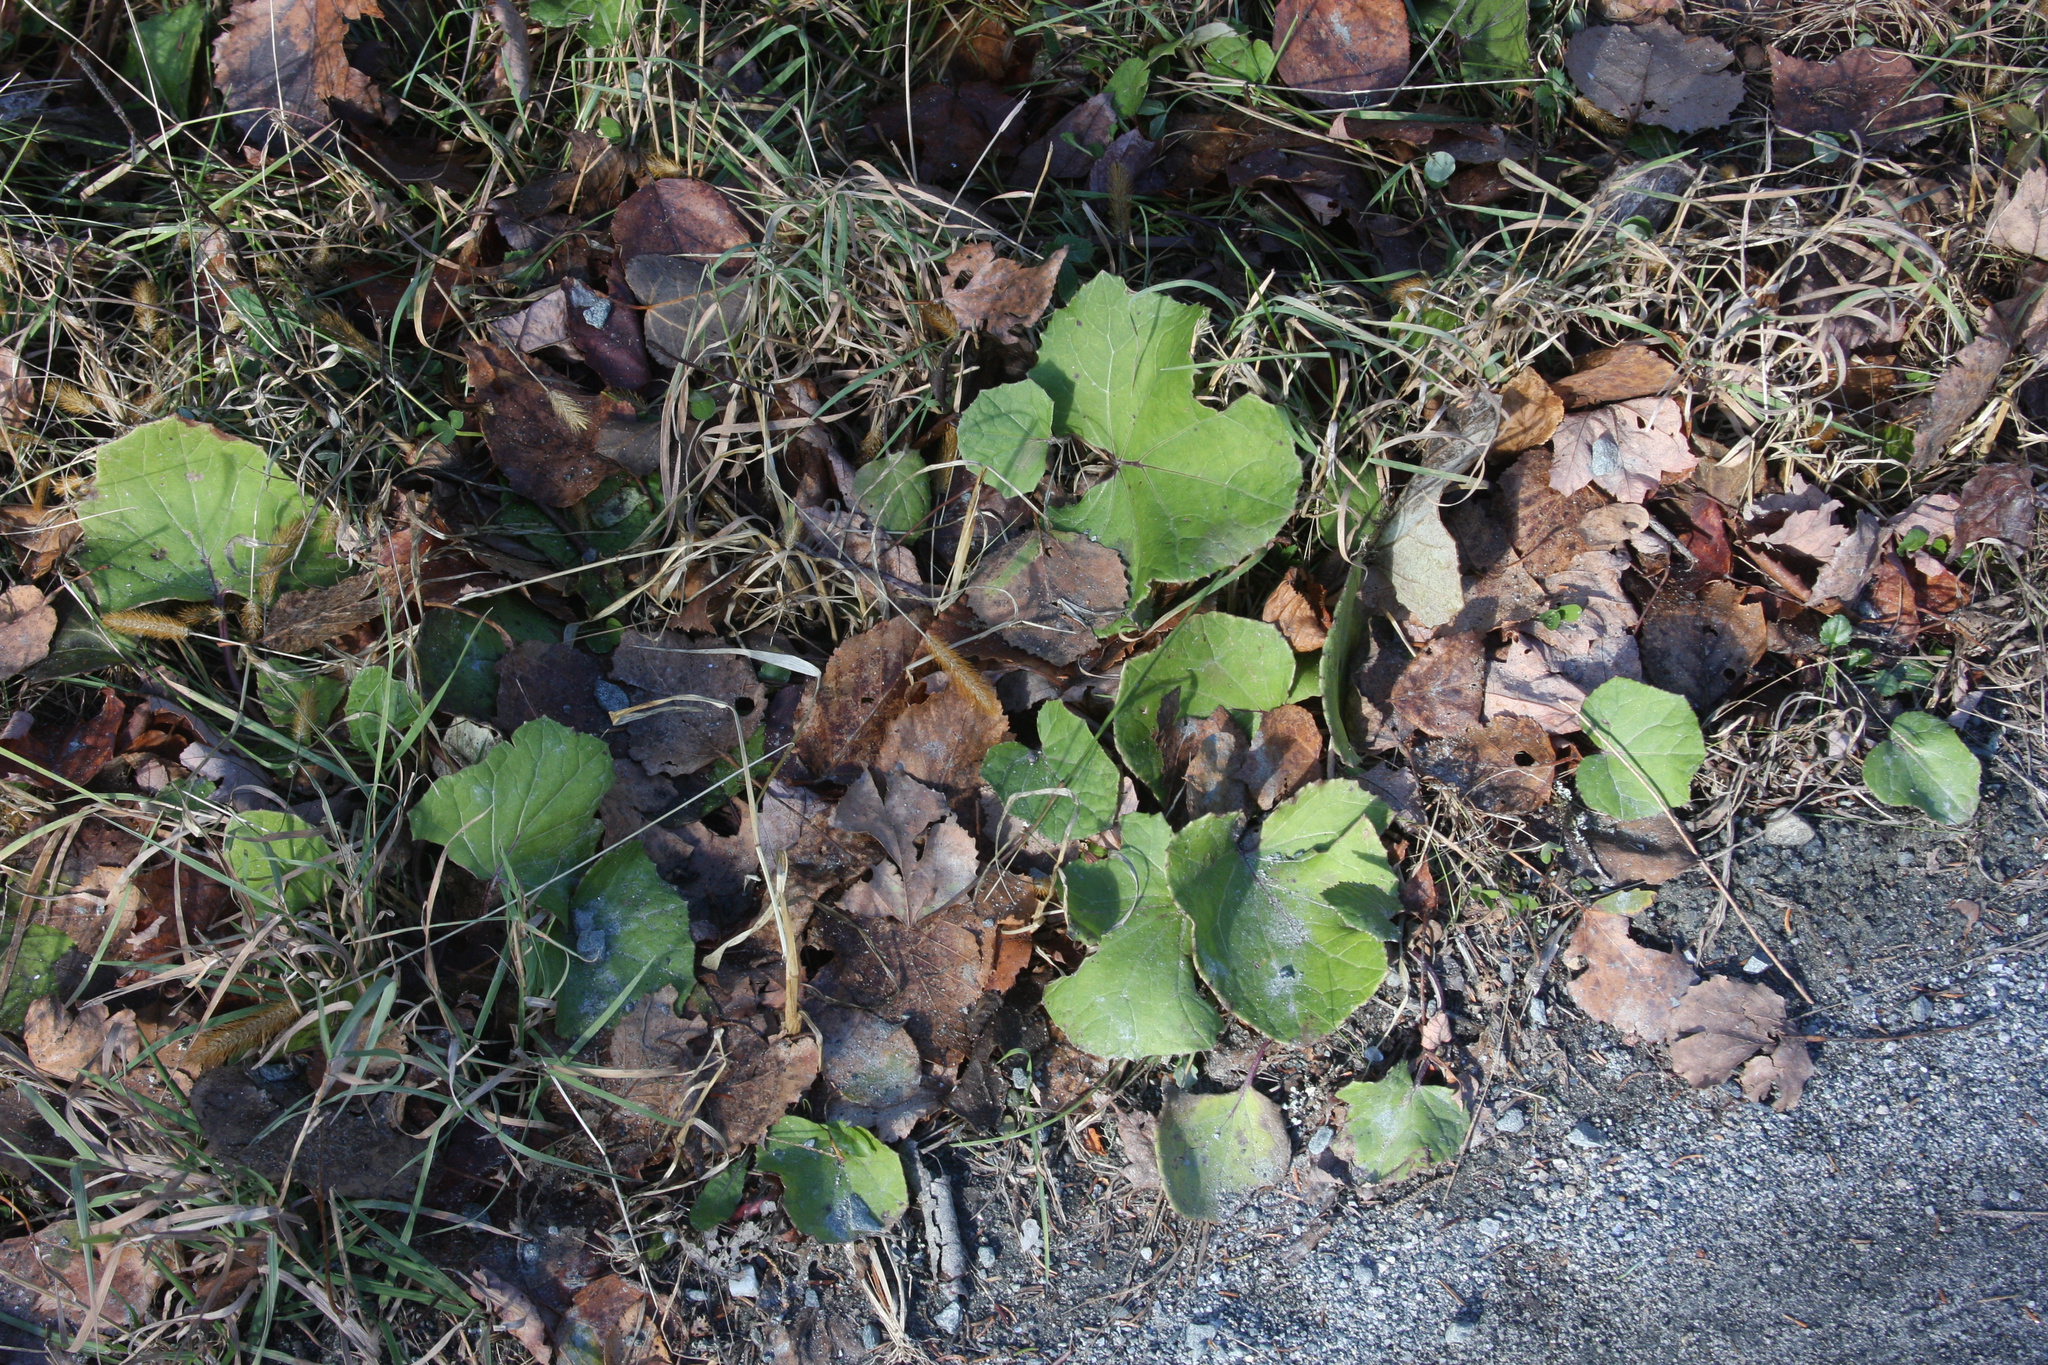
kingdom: Plantae
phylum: Tracheophyta
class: Magnoliopsida
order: Asterales
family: Asteraceae
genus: Tussilago
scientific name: Tussilago farfara
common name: Coltsfoot
